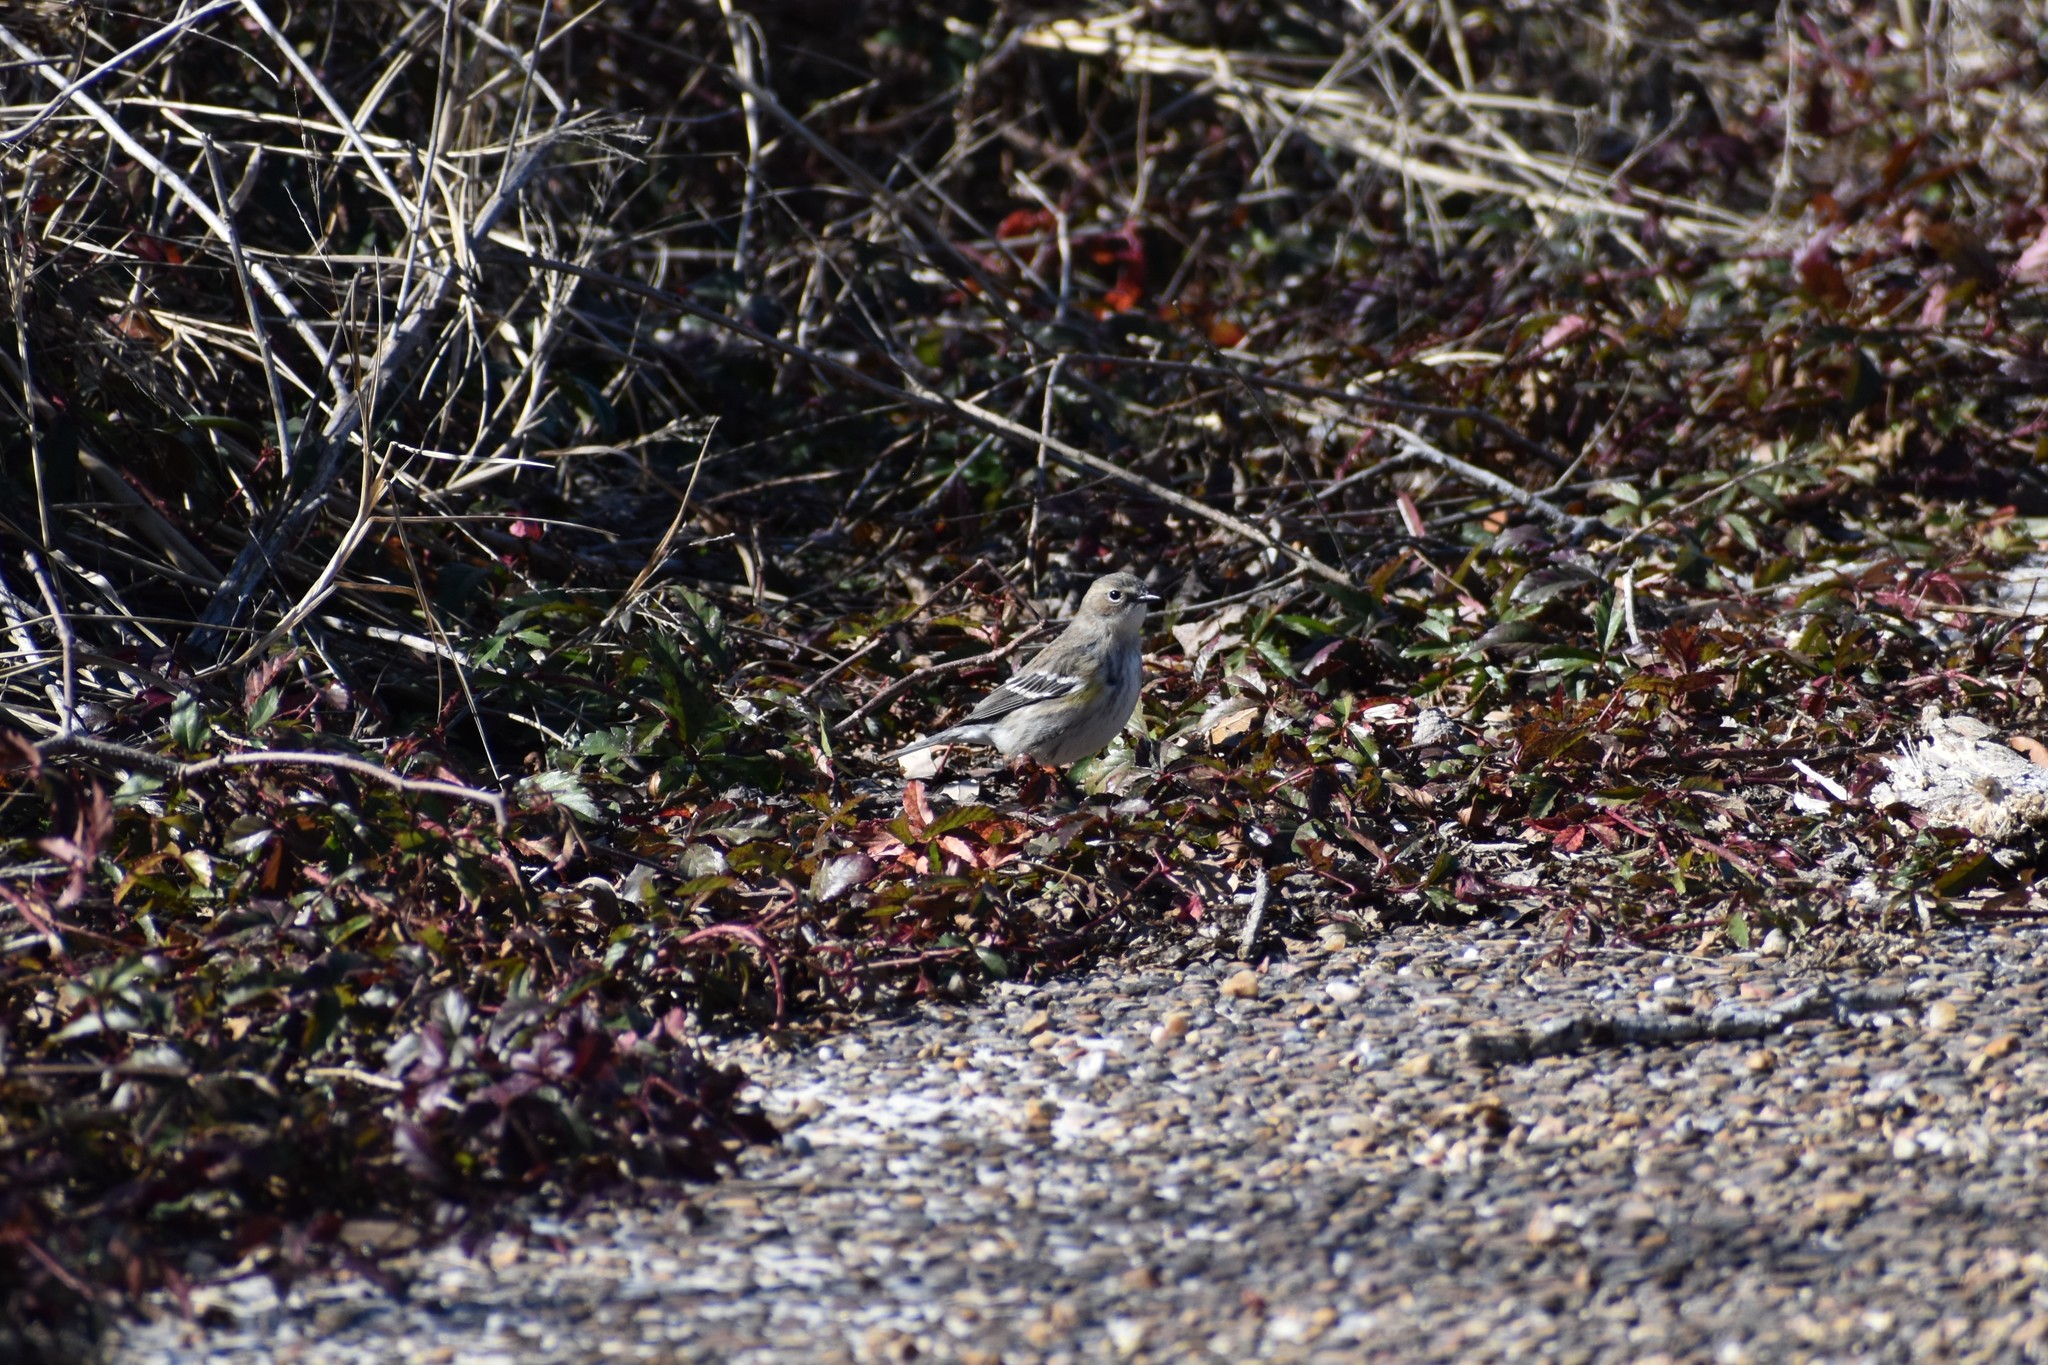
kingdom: Animalia
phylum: Chordata
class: Aves
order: Passeriformes
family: Parulidae
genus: Setophaga
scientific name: Setophaga coronata
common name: Myrtle warbler
